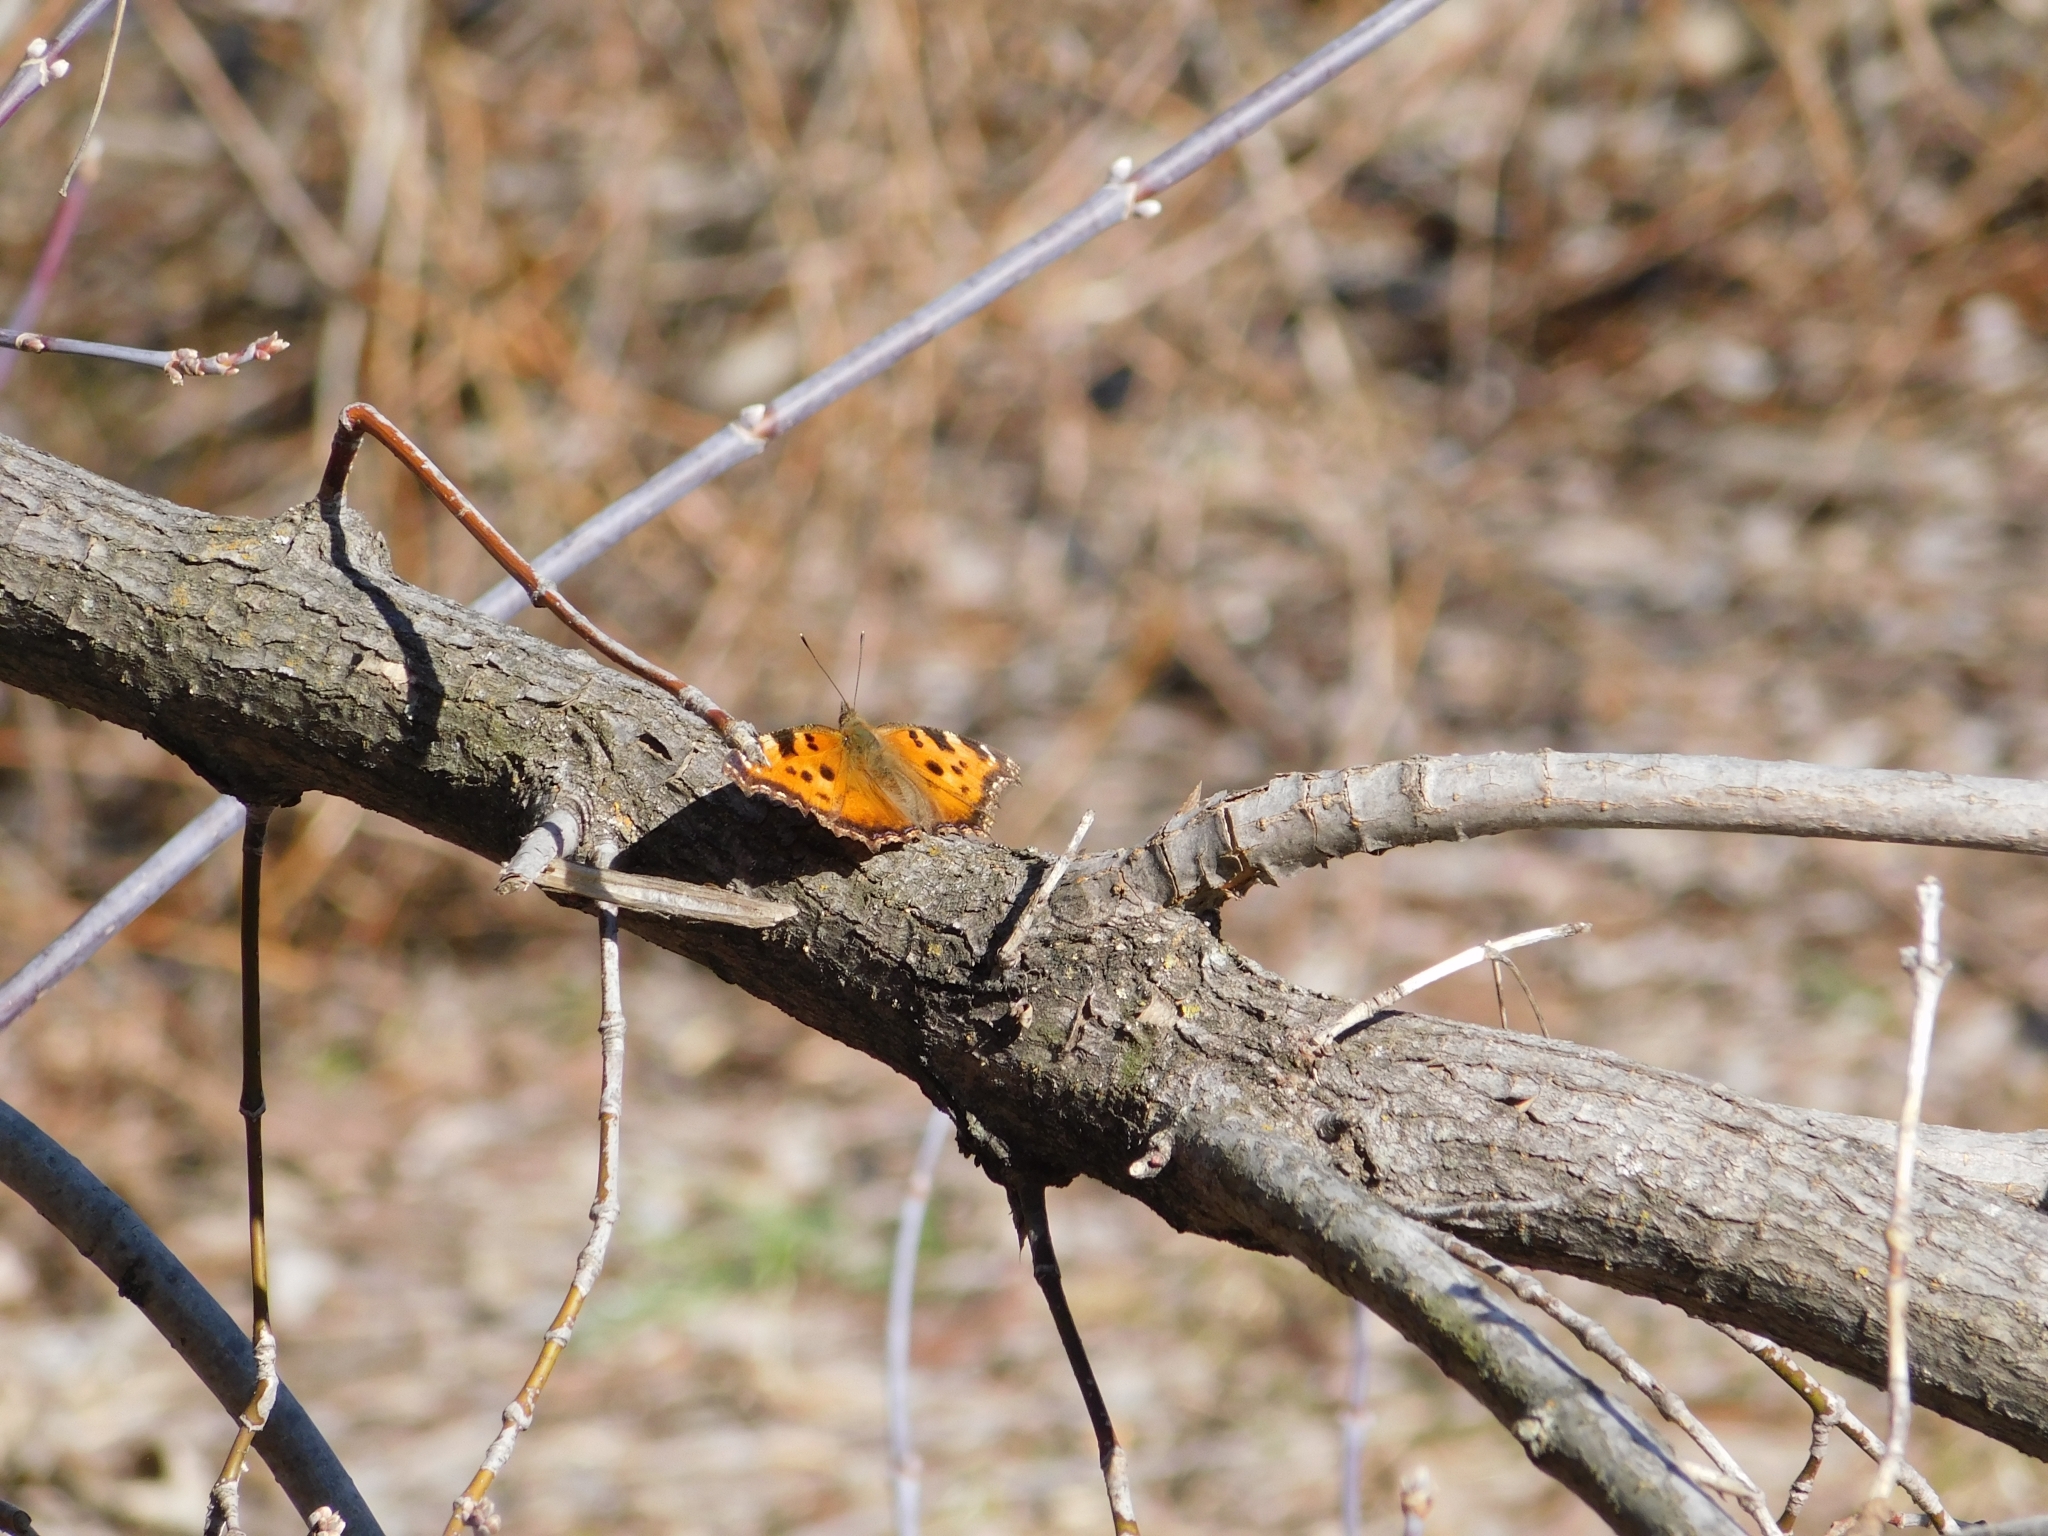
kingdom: Animalia
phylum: Arthropoda
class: Insecta
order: Lepidoptera
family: Nymphalidae
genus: Nymphalis
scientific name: Nymphalis xanthomelas
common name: Scarce tortoiseshell
